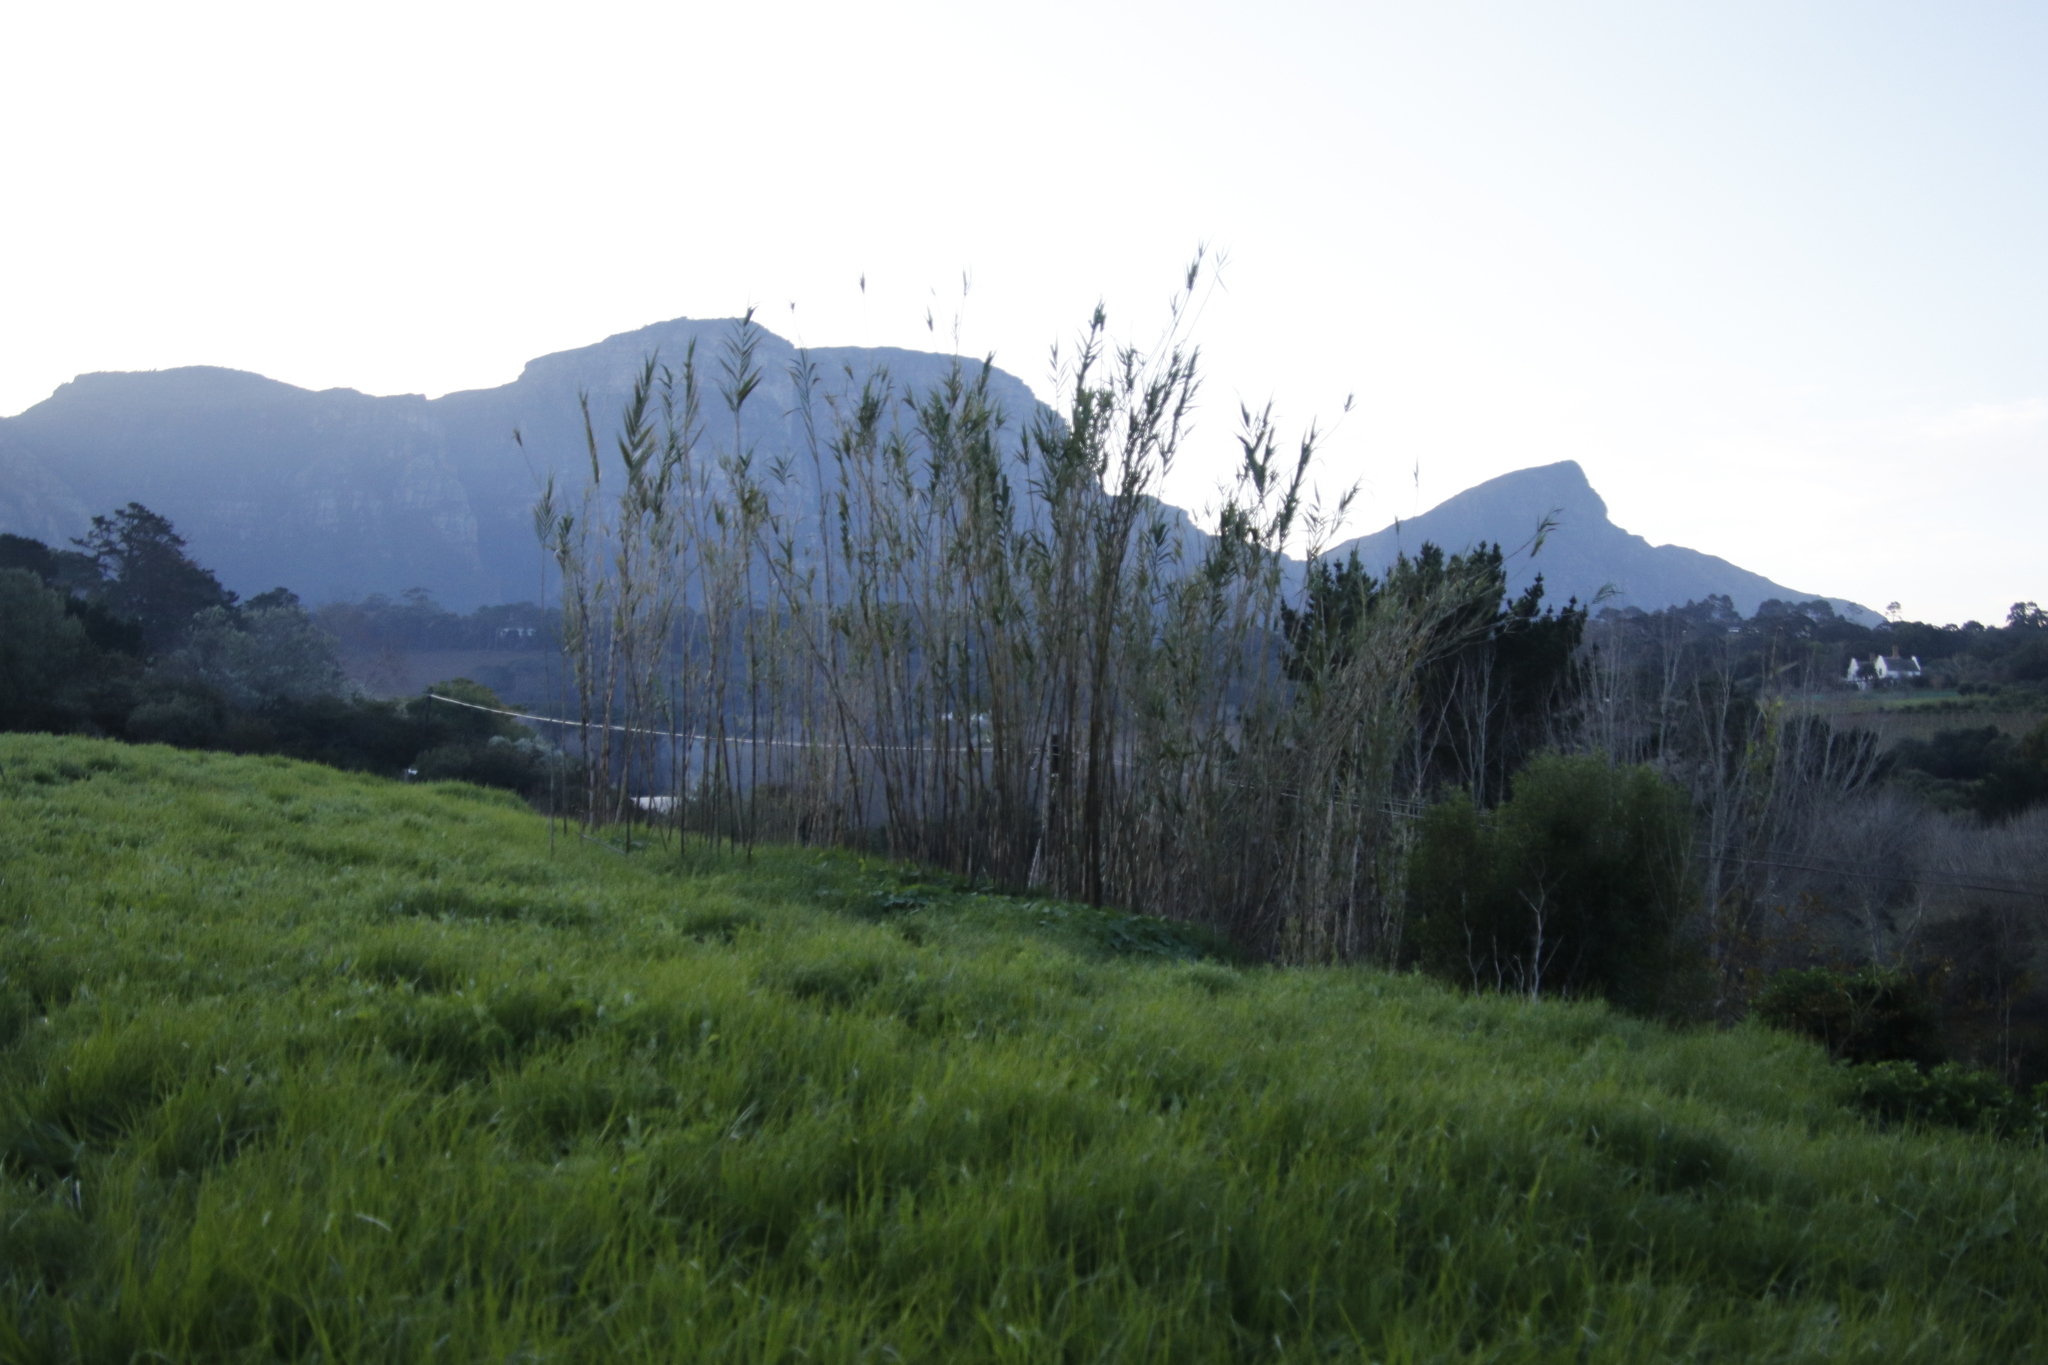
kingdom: Plantae
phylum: Tracheophyta
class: Liliopsida
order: Poales
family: Poaceae
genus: Arundo
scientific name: Arundo donax
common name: Giant reed
